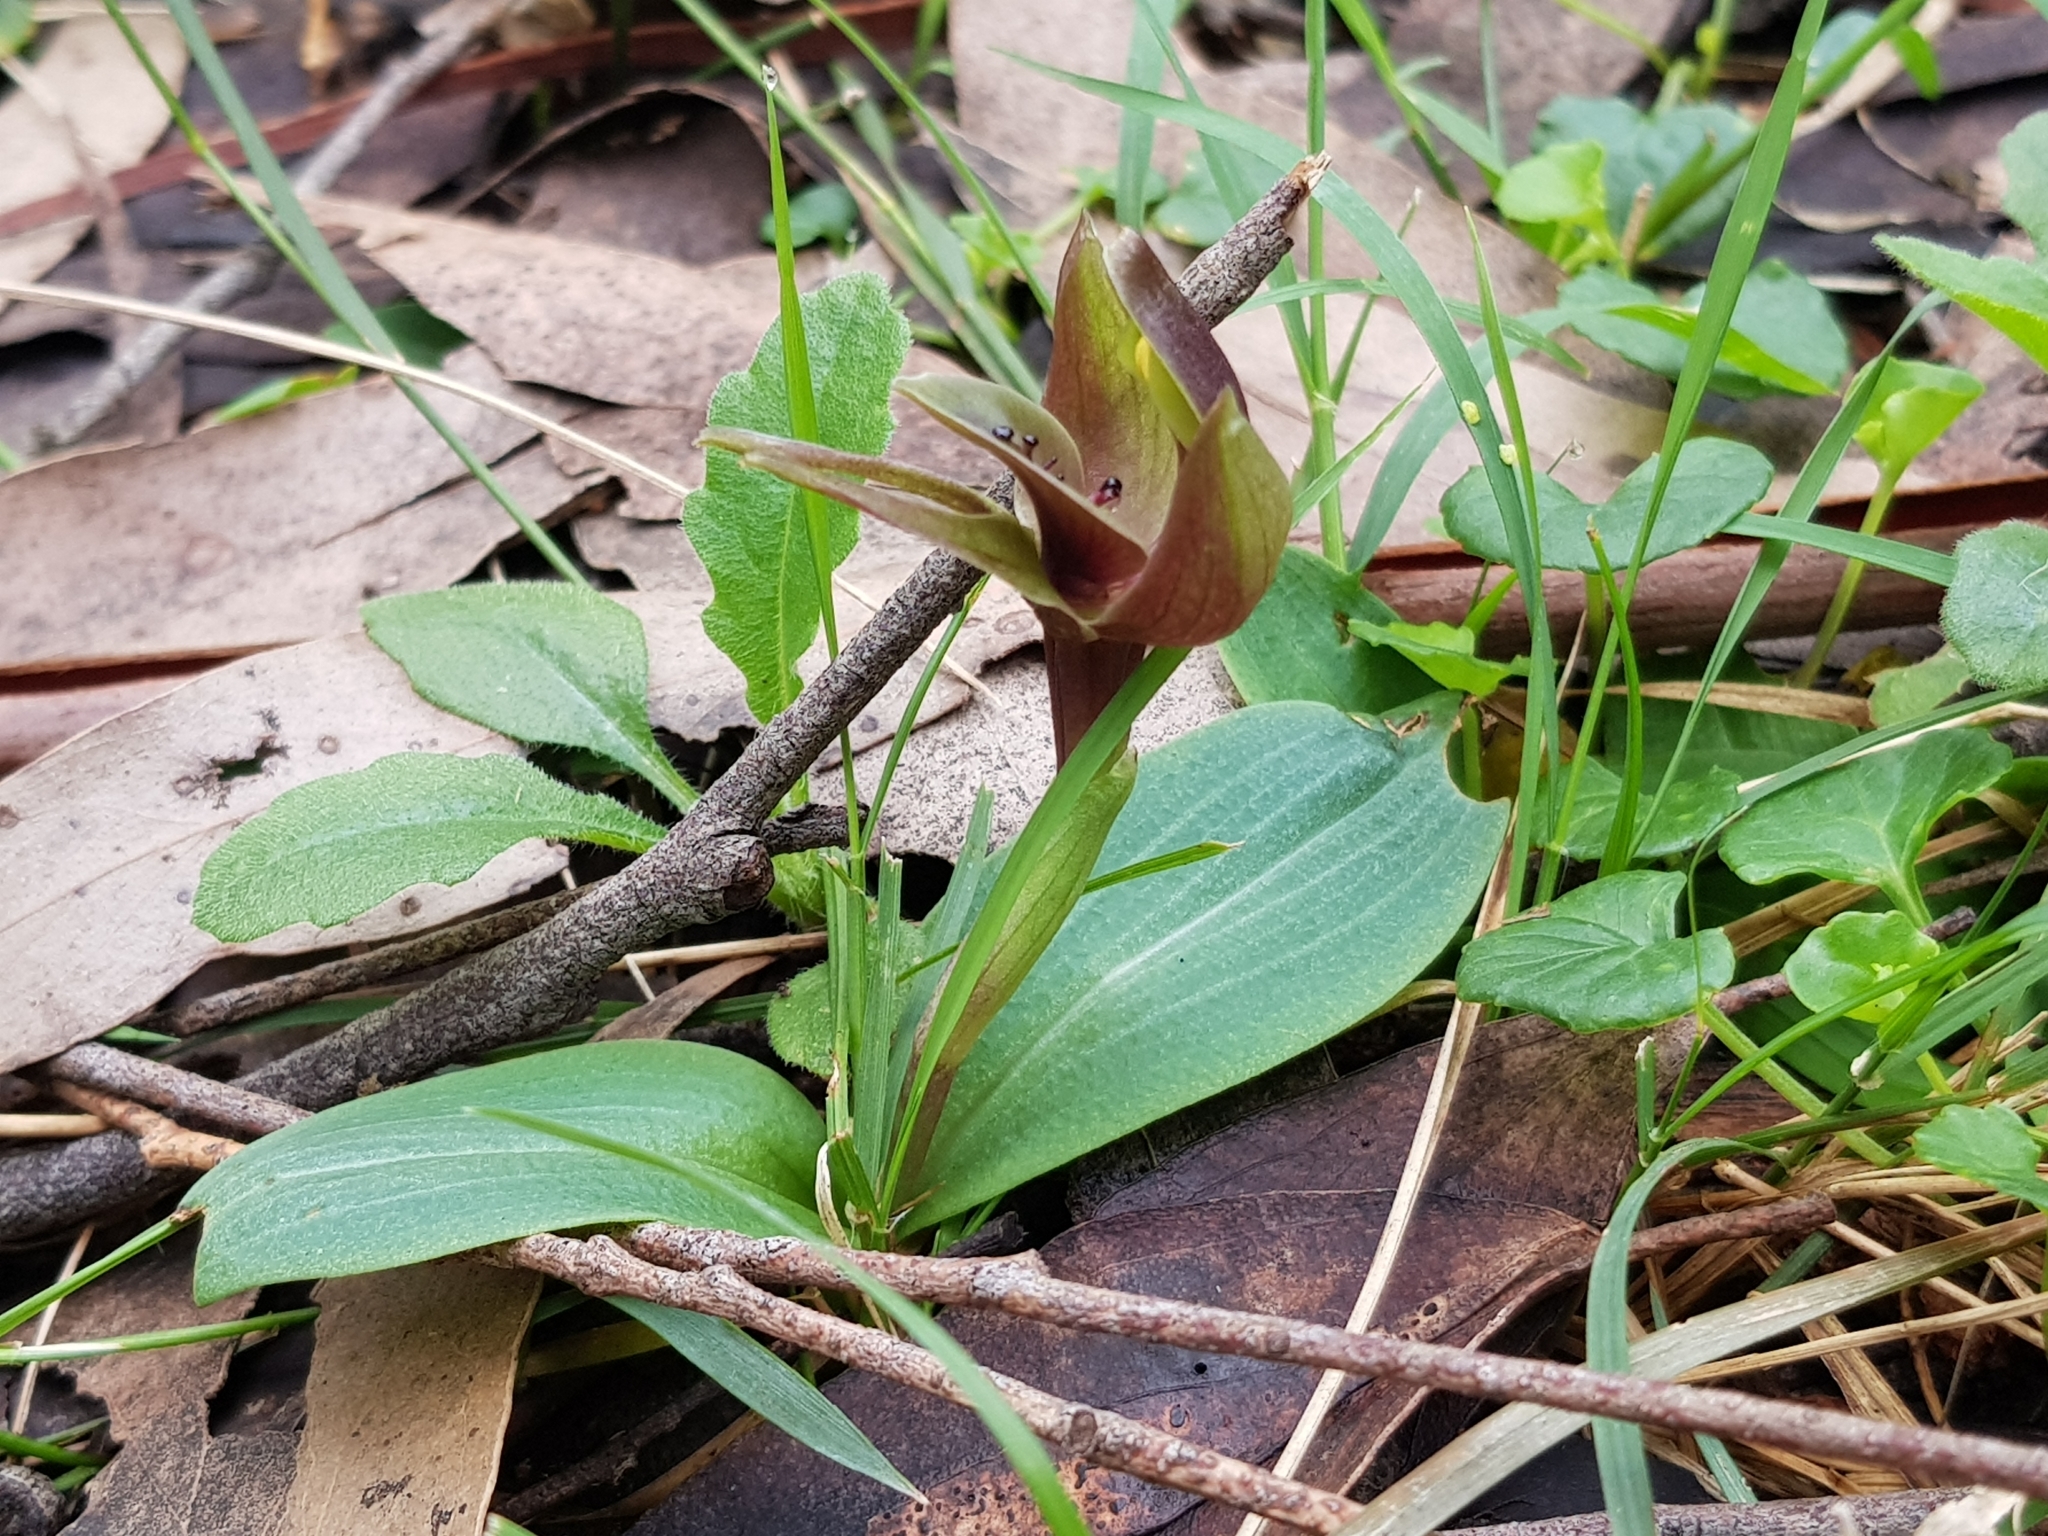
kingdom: Plantae
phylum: Tracheophyta
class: Liliopsida
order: Asparagales
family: Orchidaceae
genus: Chiloglottis
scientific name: Chiloglottis valida
